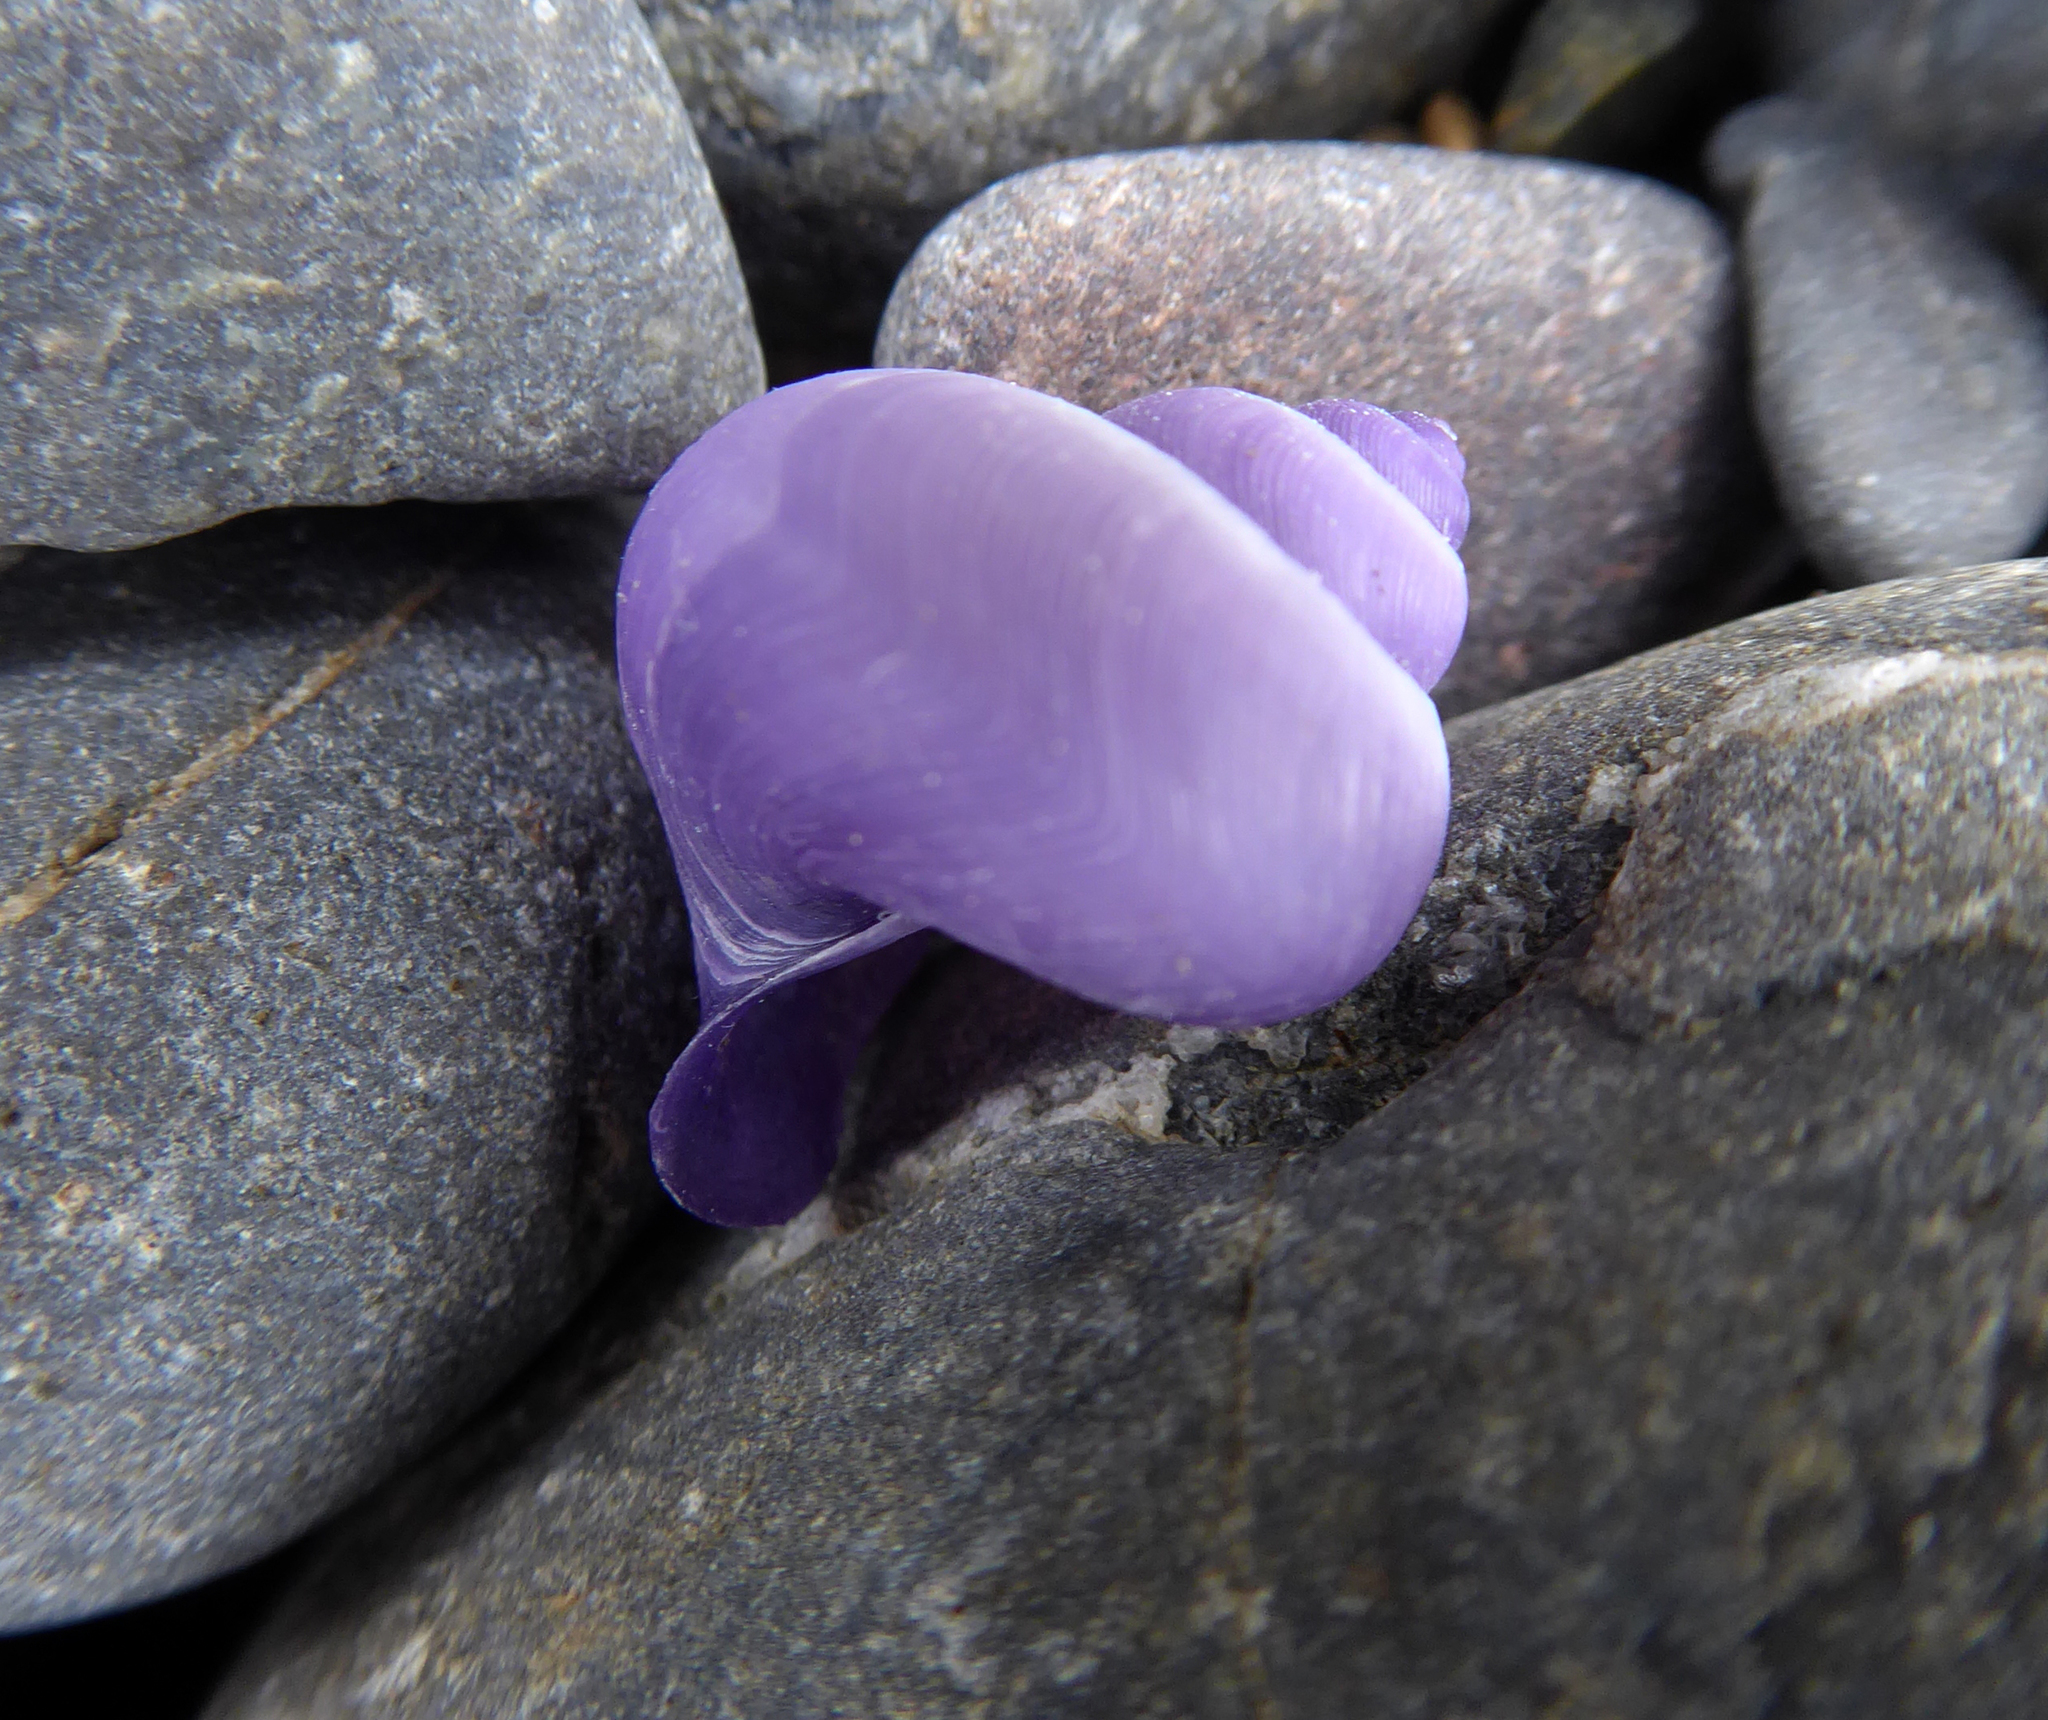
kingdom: Animalia
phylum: Mollusca
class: Gastropoda
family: Epitoniidae
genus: Janthina
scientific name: Janthina exigua
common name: Dwarf janthina
